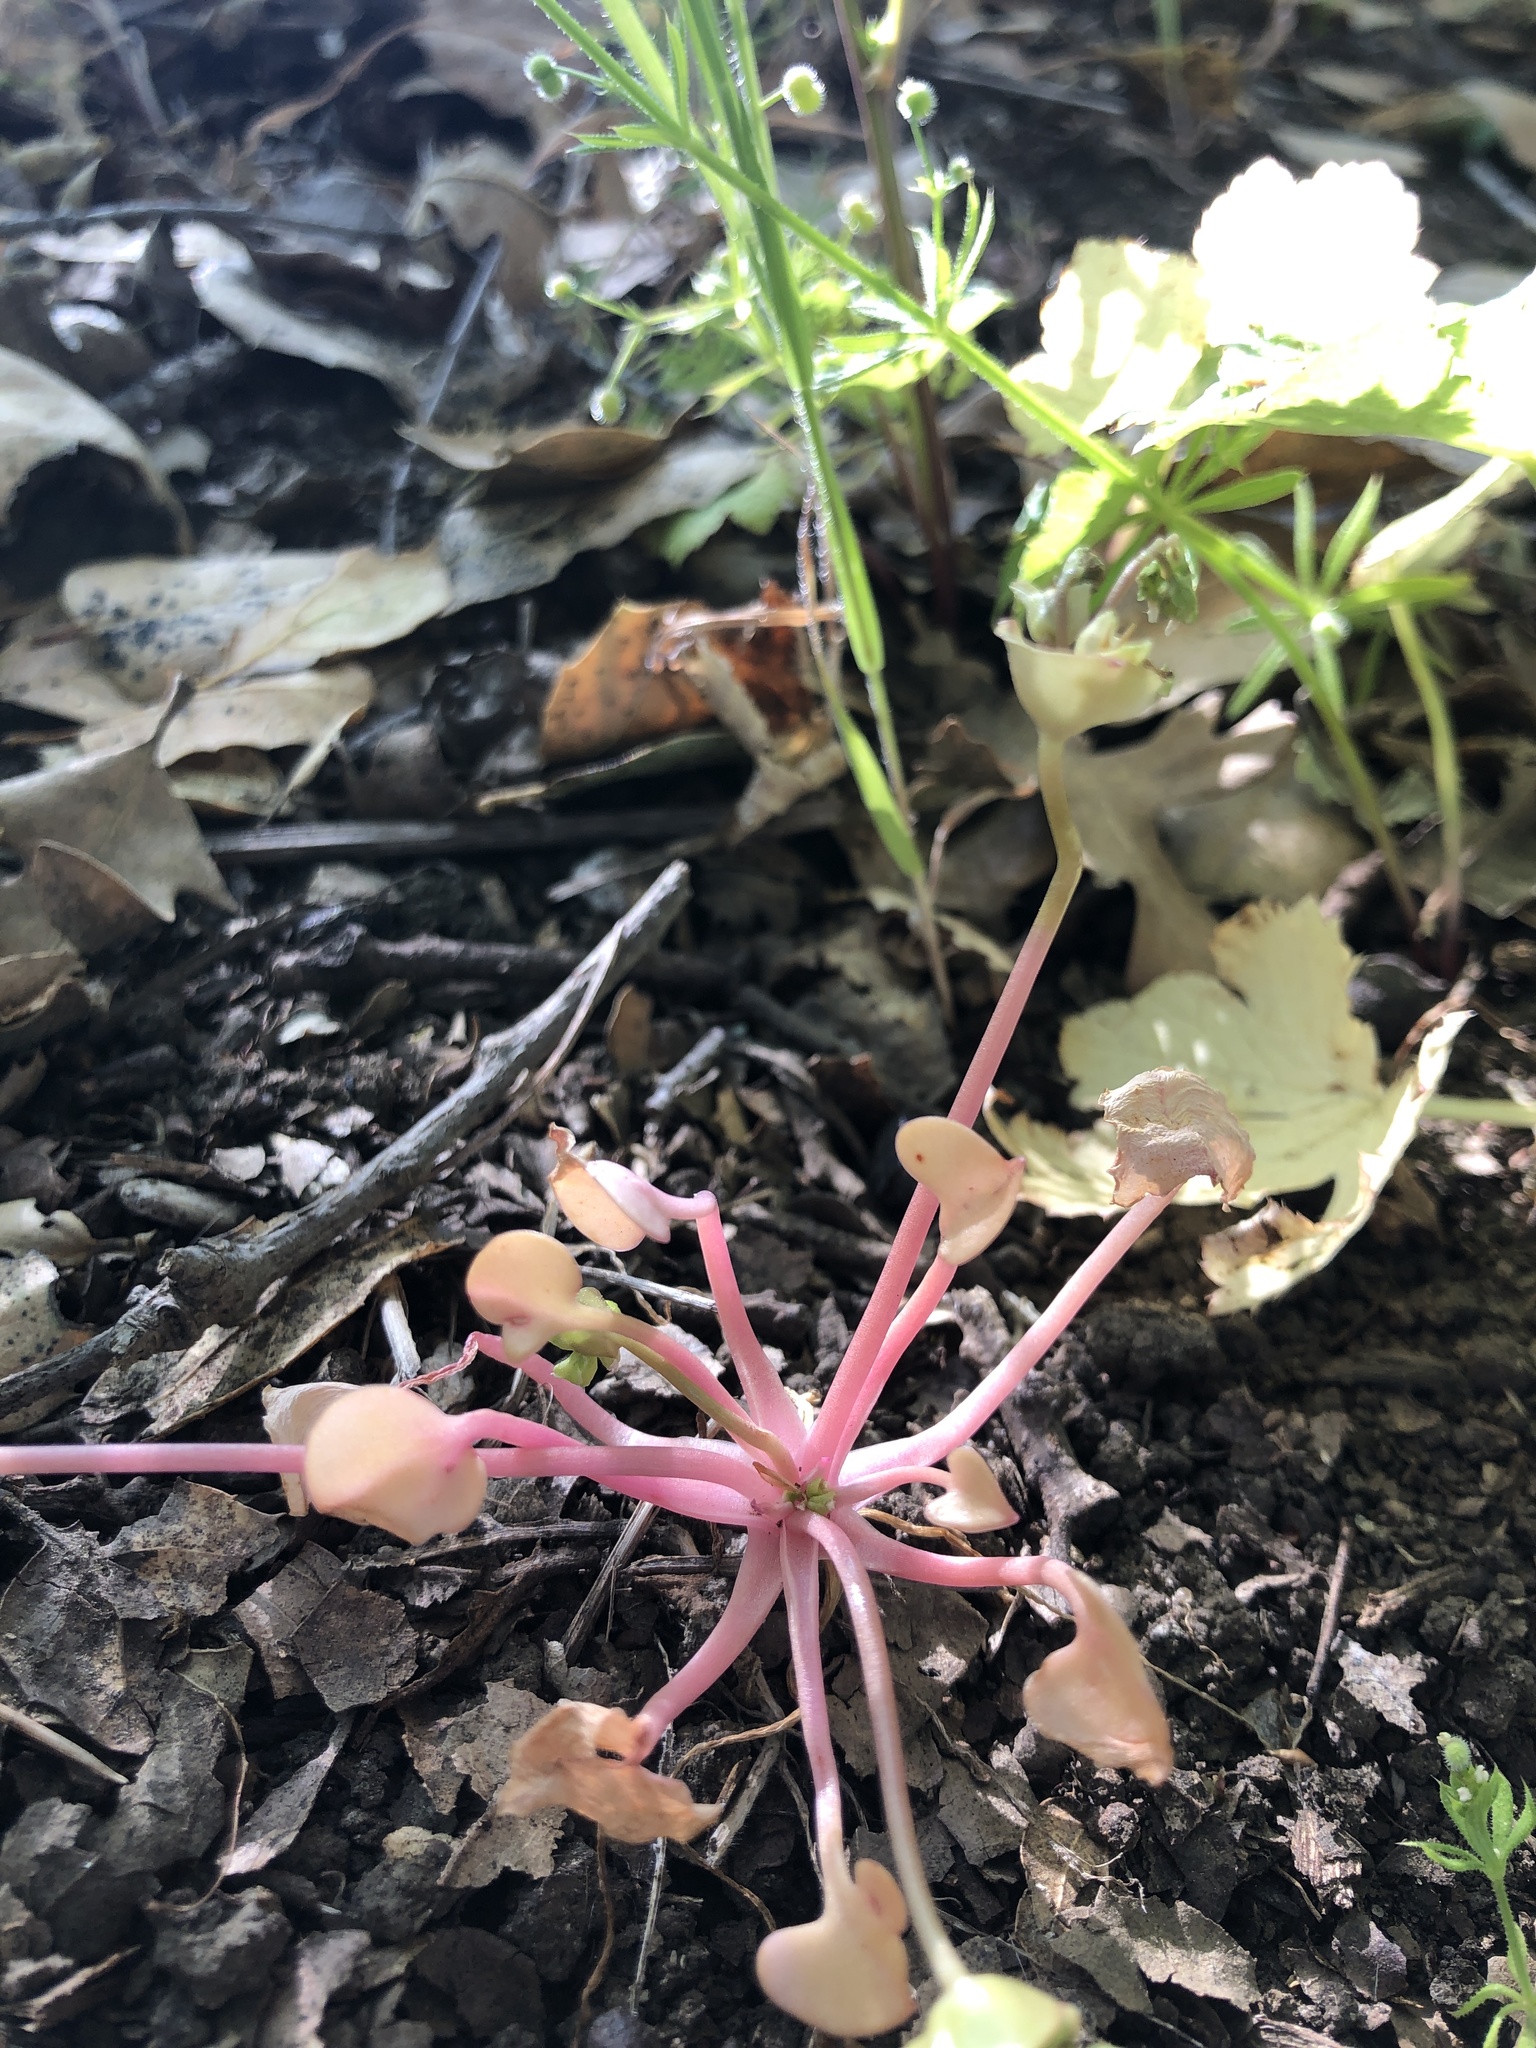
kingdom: Plantae
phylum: Tracheophyta
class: Magnoliopsida
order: Caryophyllales
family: Montiaceae
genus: Claytonia
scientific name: Claytonia rubra
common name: Erubescent miner's-lettuce
